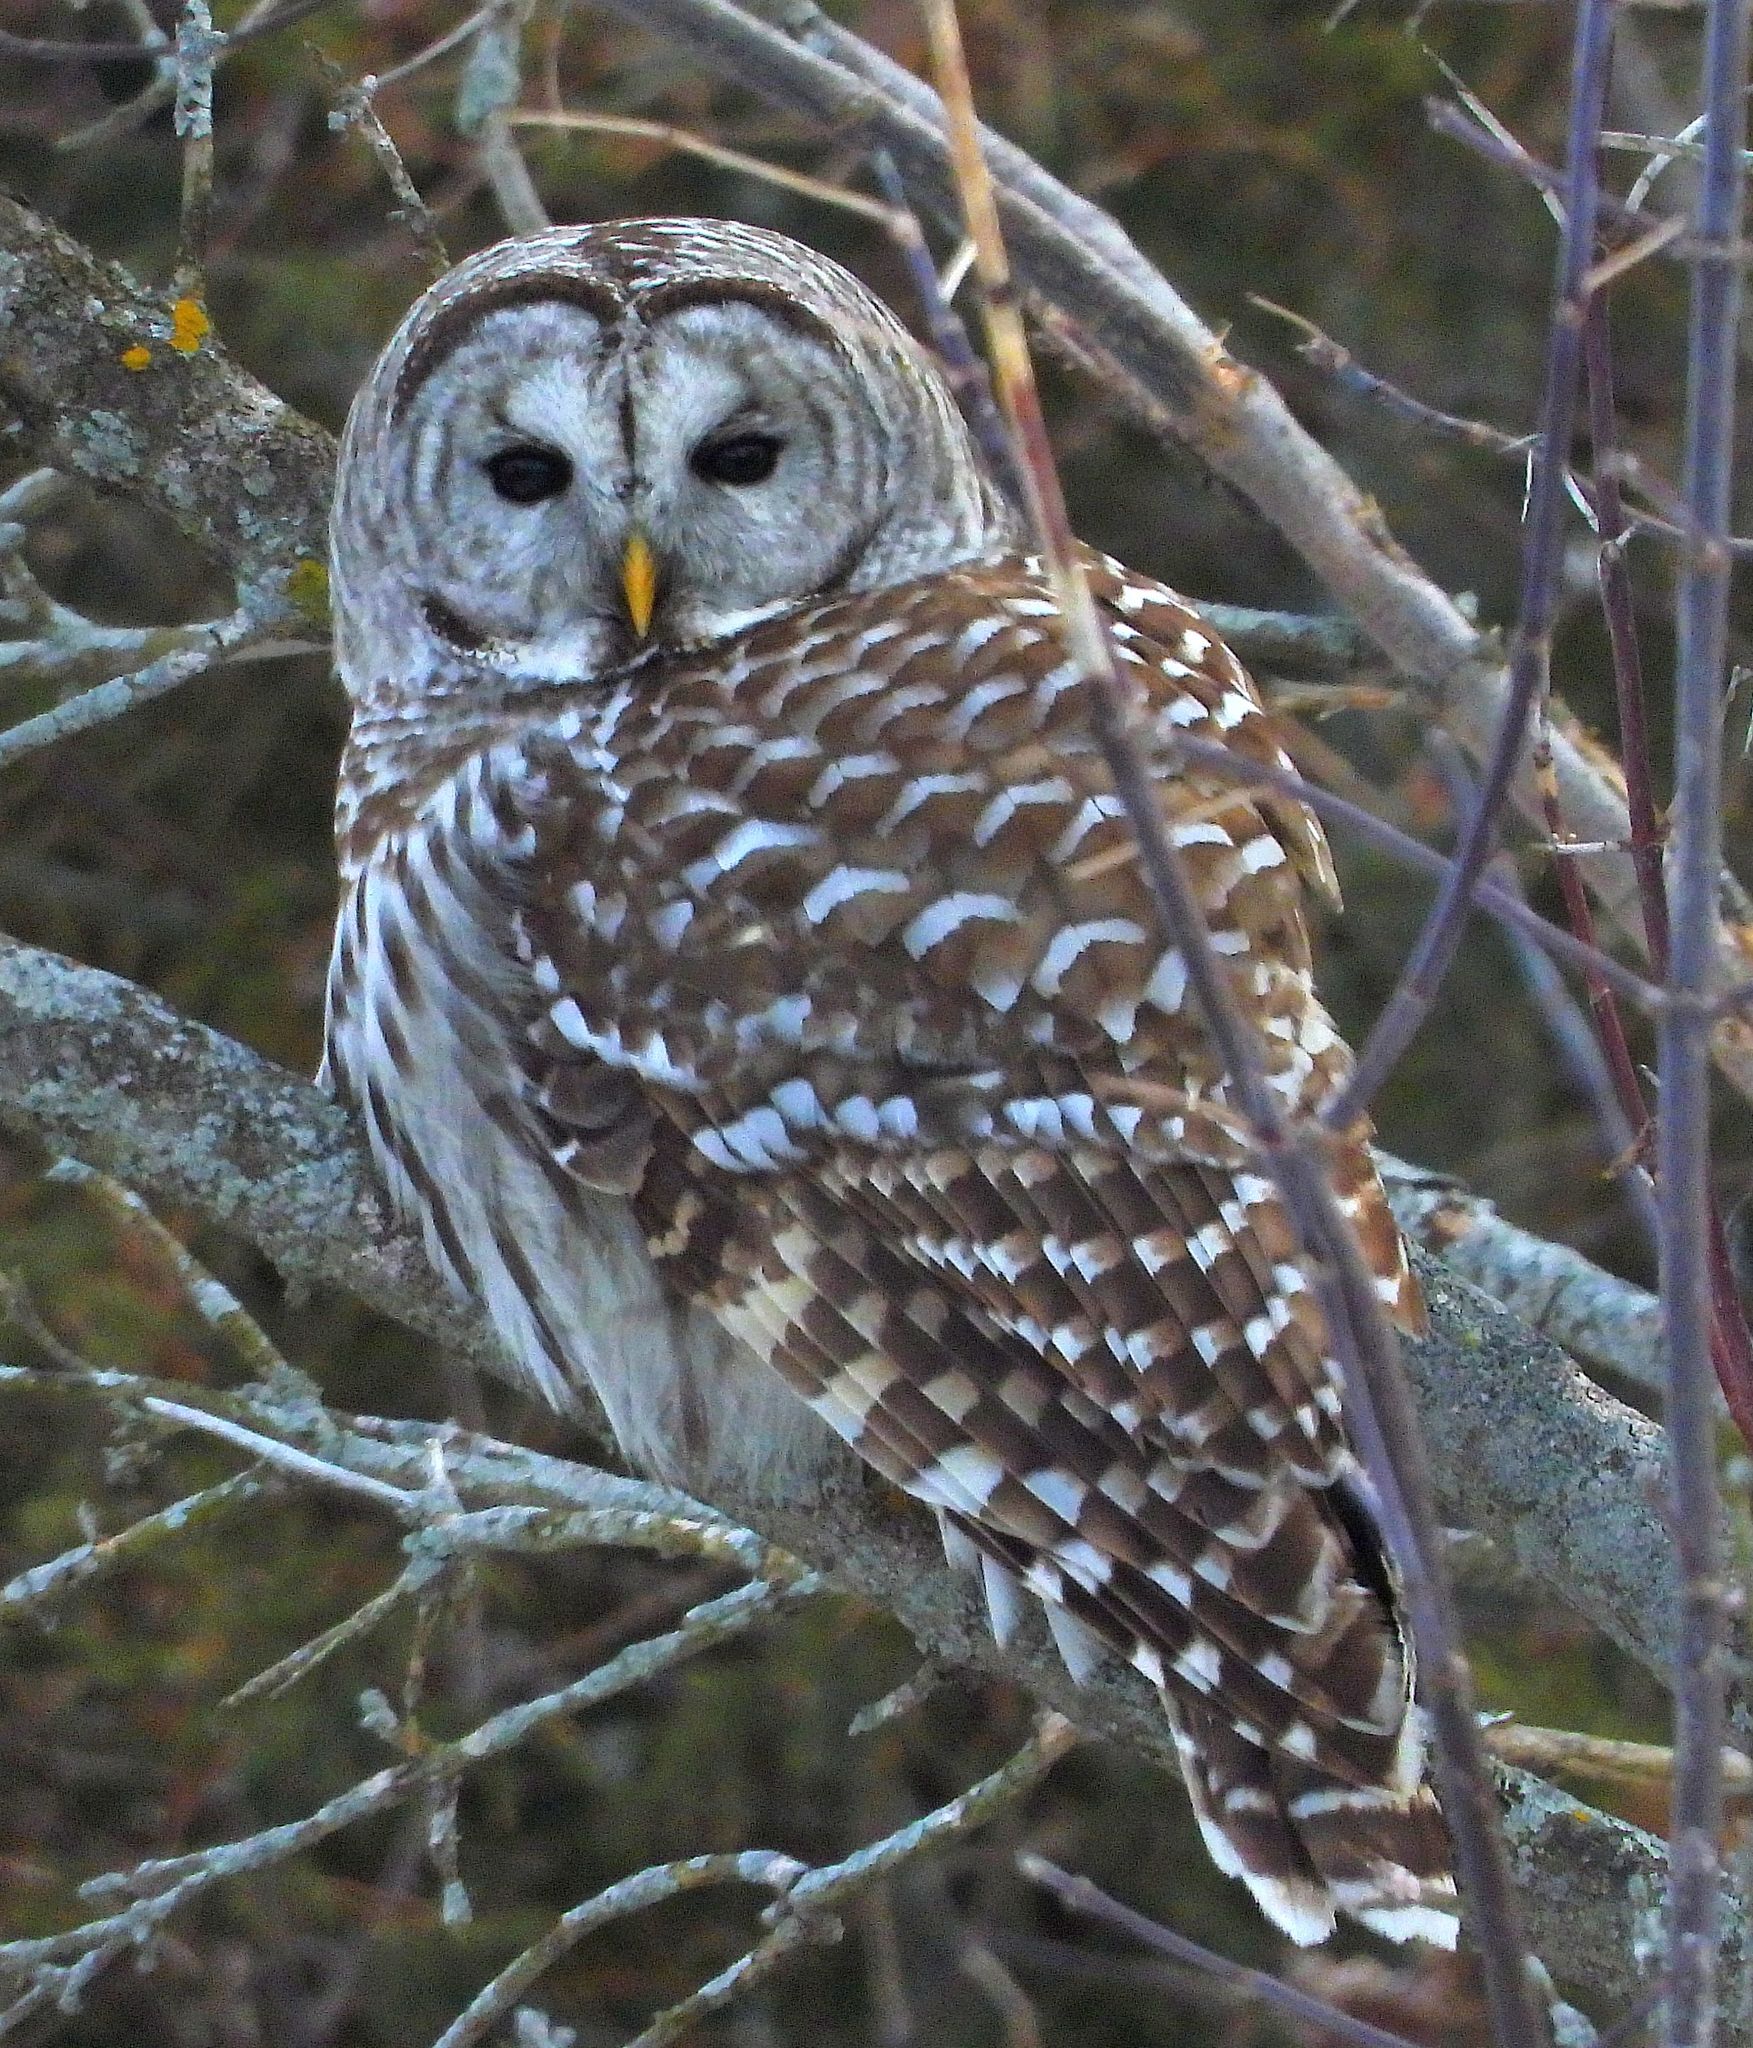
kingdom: Animalia
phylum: Chordata
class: Aves
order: Strigiformes
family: Strigidae
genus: Strix
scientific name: Strix varia
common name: Barred owl
